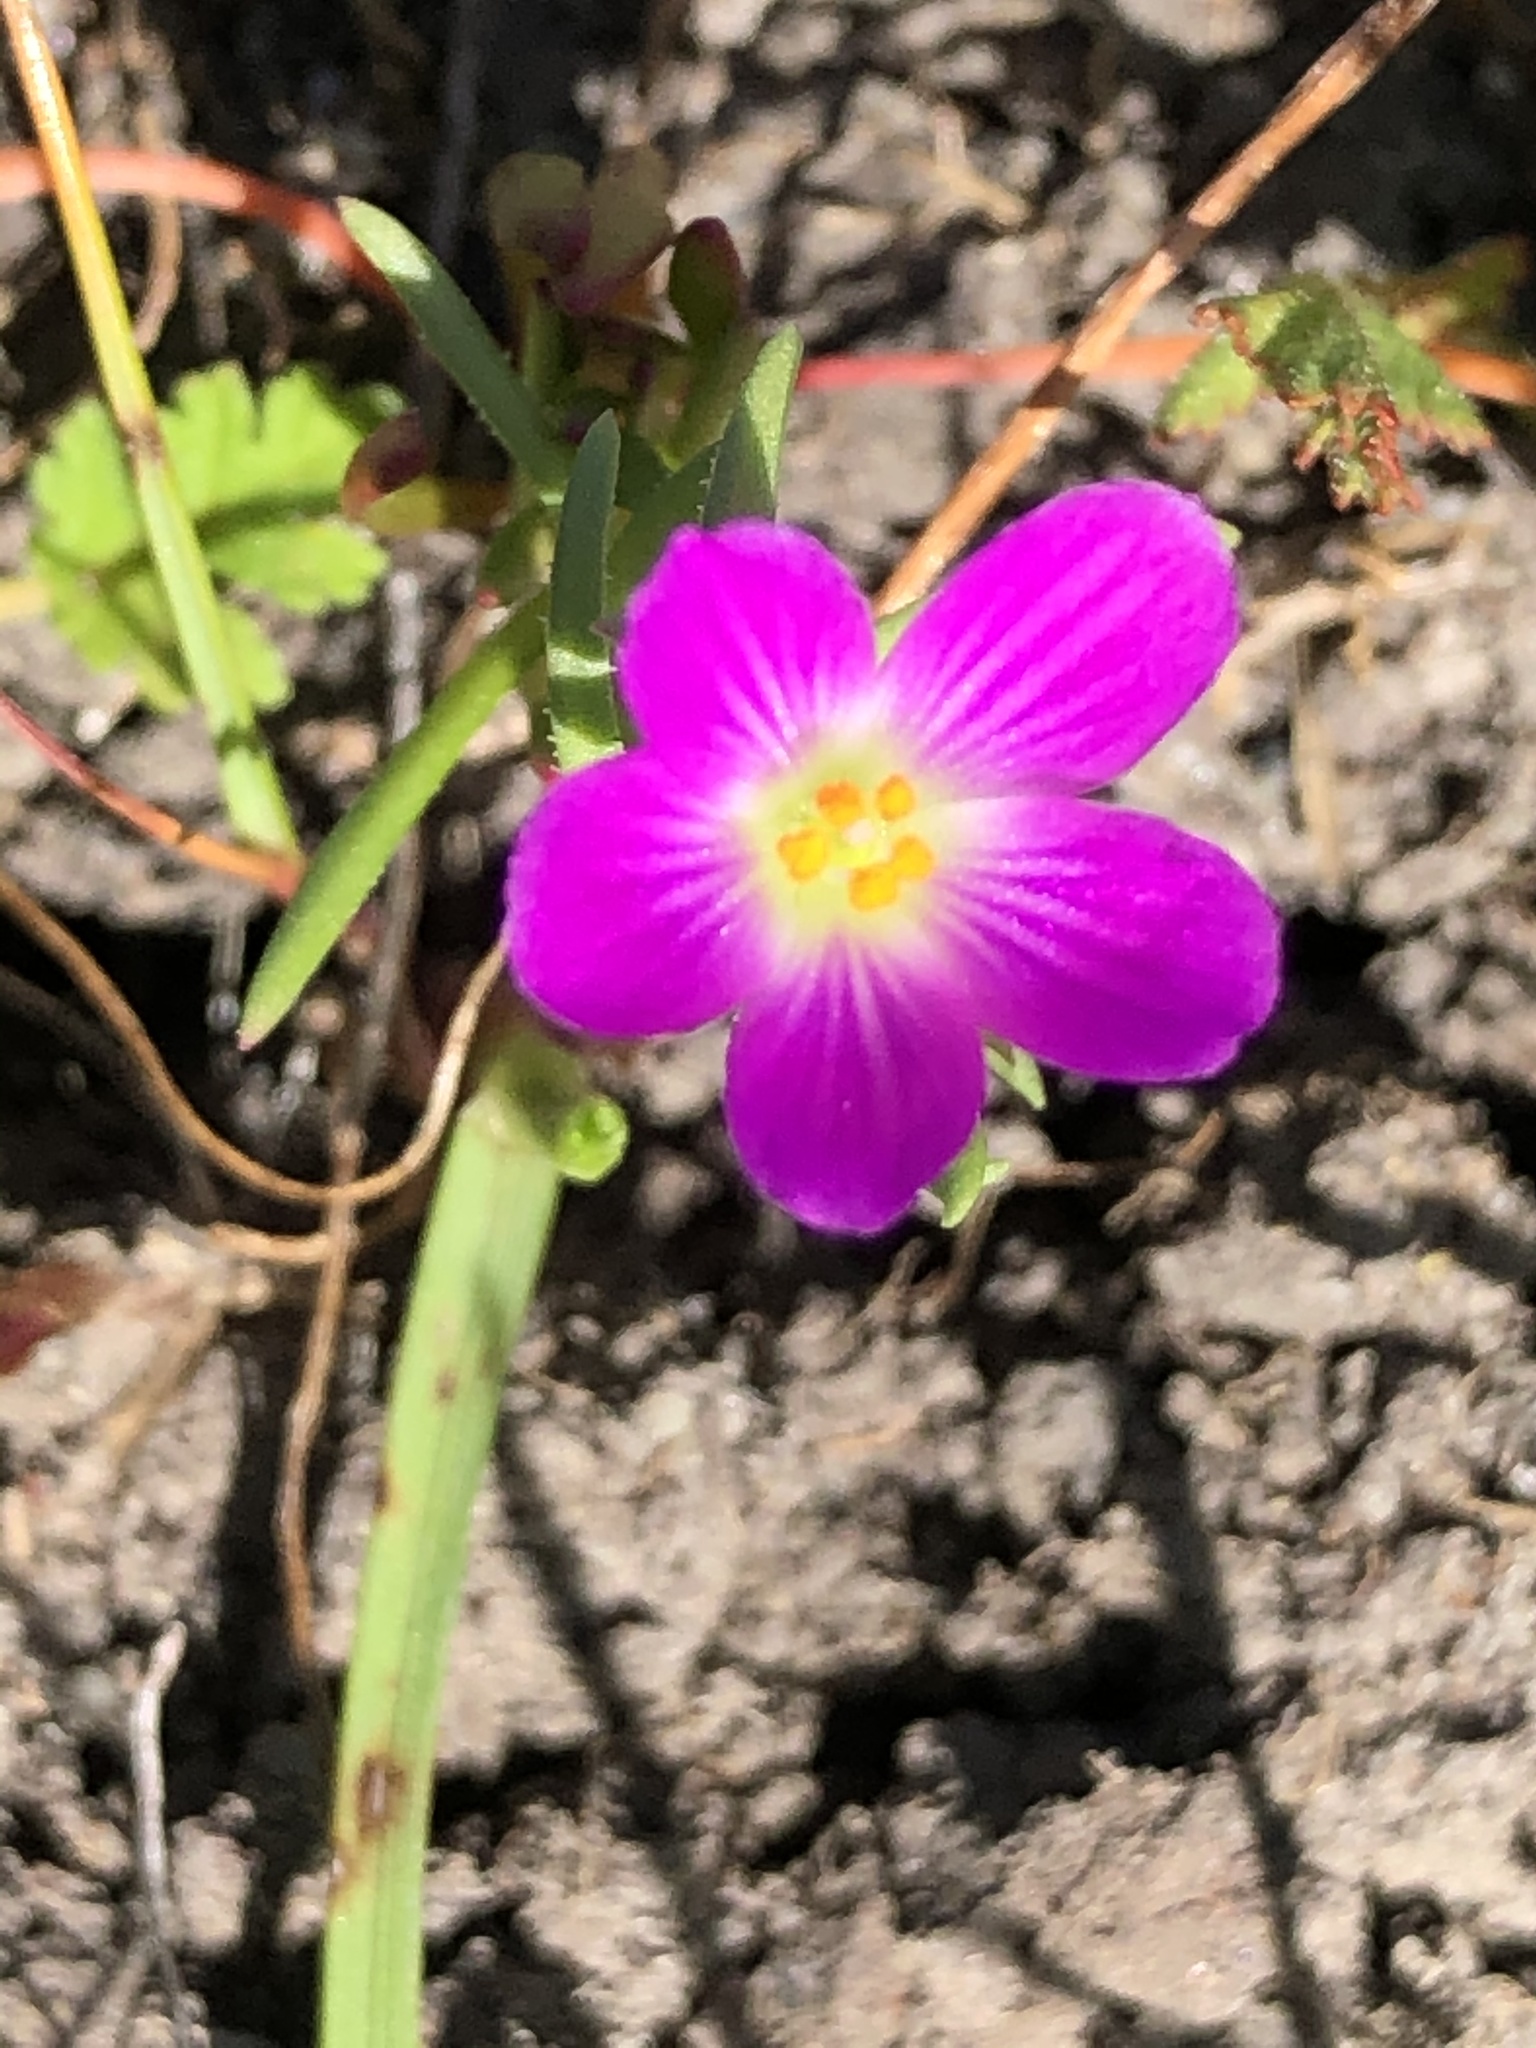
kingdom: Plantae
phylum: Tracheophyta
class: Magnoliopsida
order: Caryophyllales
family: Montiaceae
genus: Calandrinia
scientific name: Calandrinia menziesii
